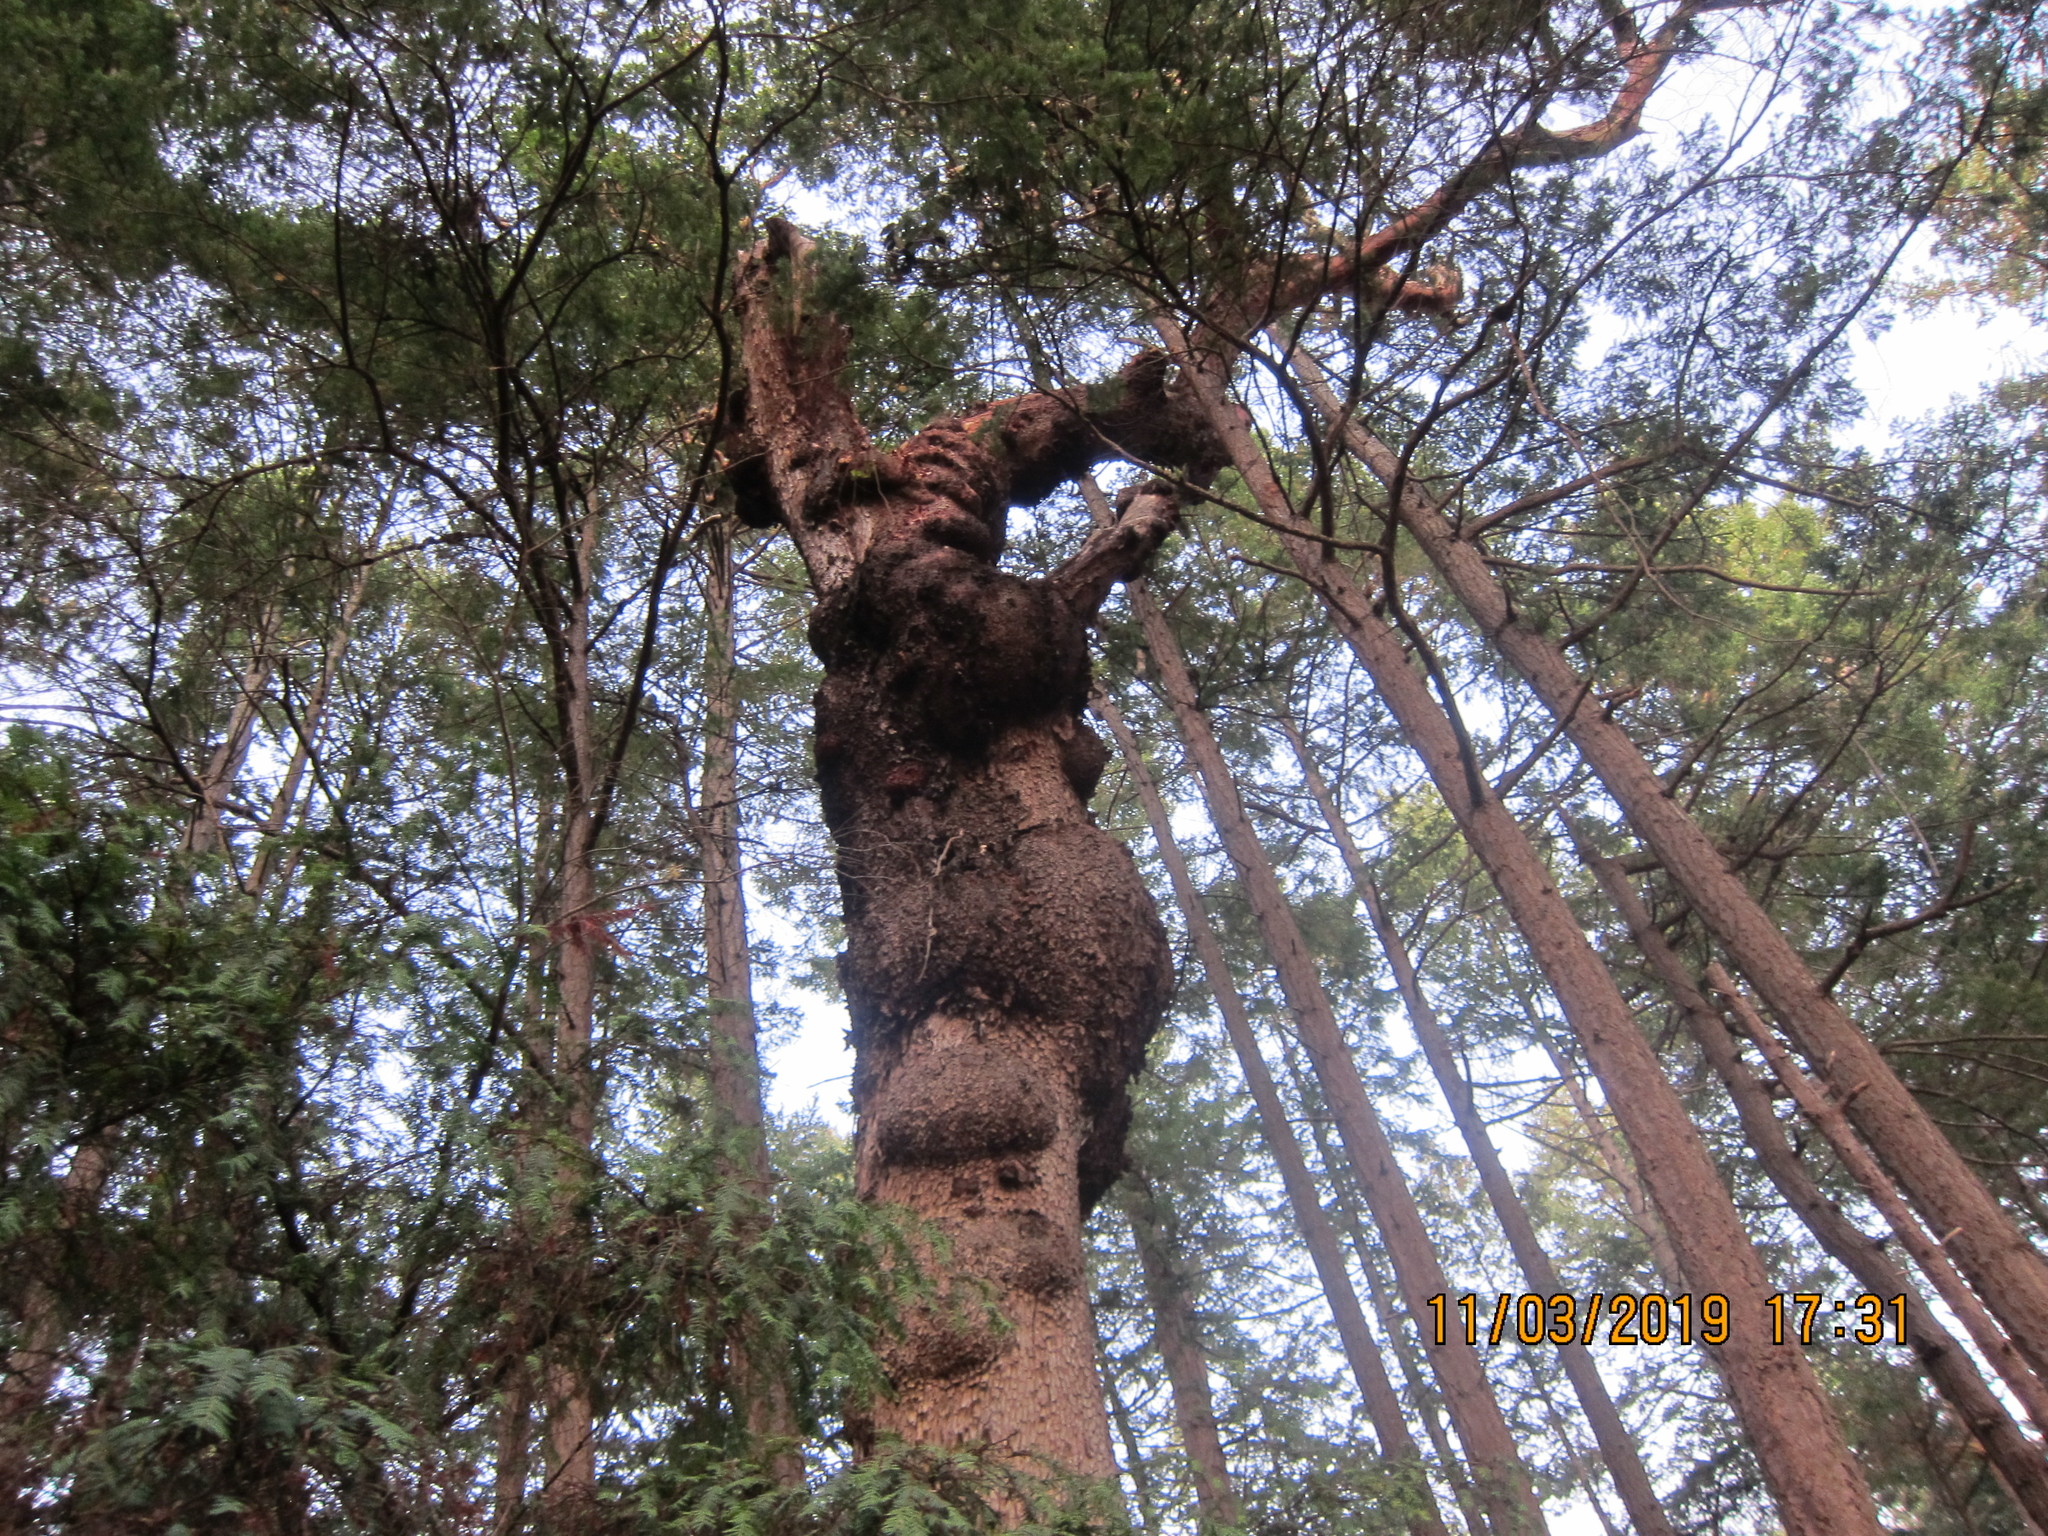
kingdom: Plantae
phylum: Tracheophyta
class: Magnoliopsida
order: Ericales
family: Ericaceae
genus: Arbutus
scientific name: Arbutus menziesii
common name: Pacific madrone
